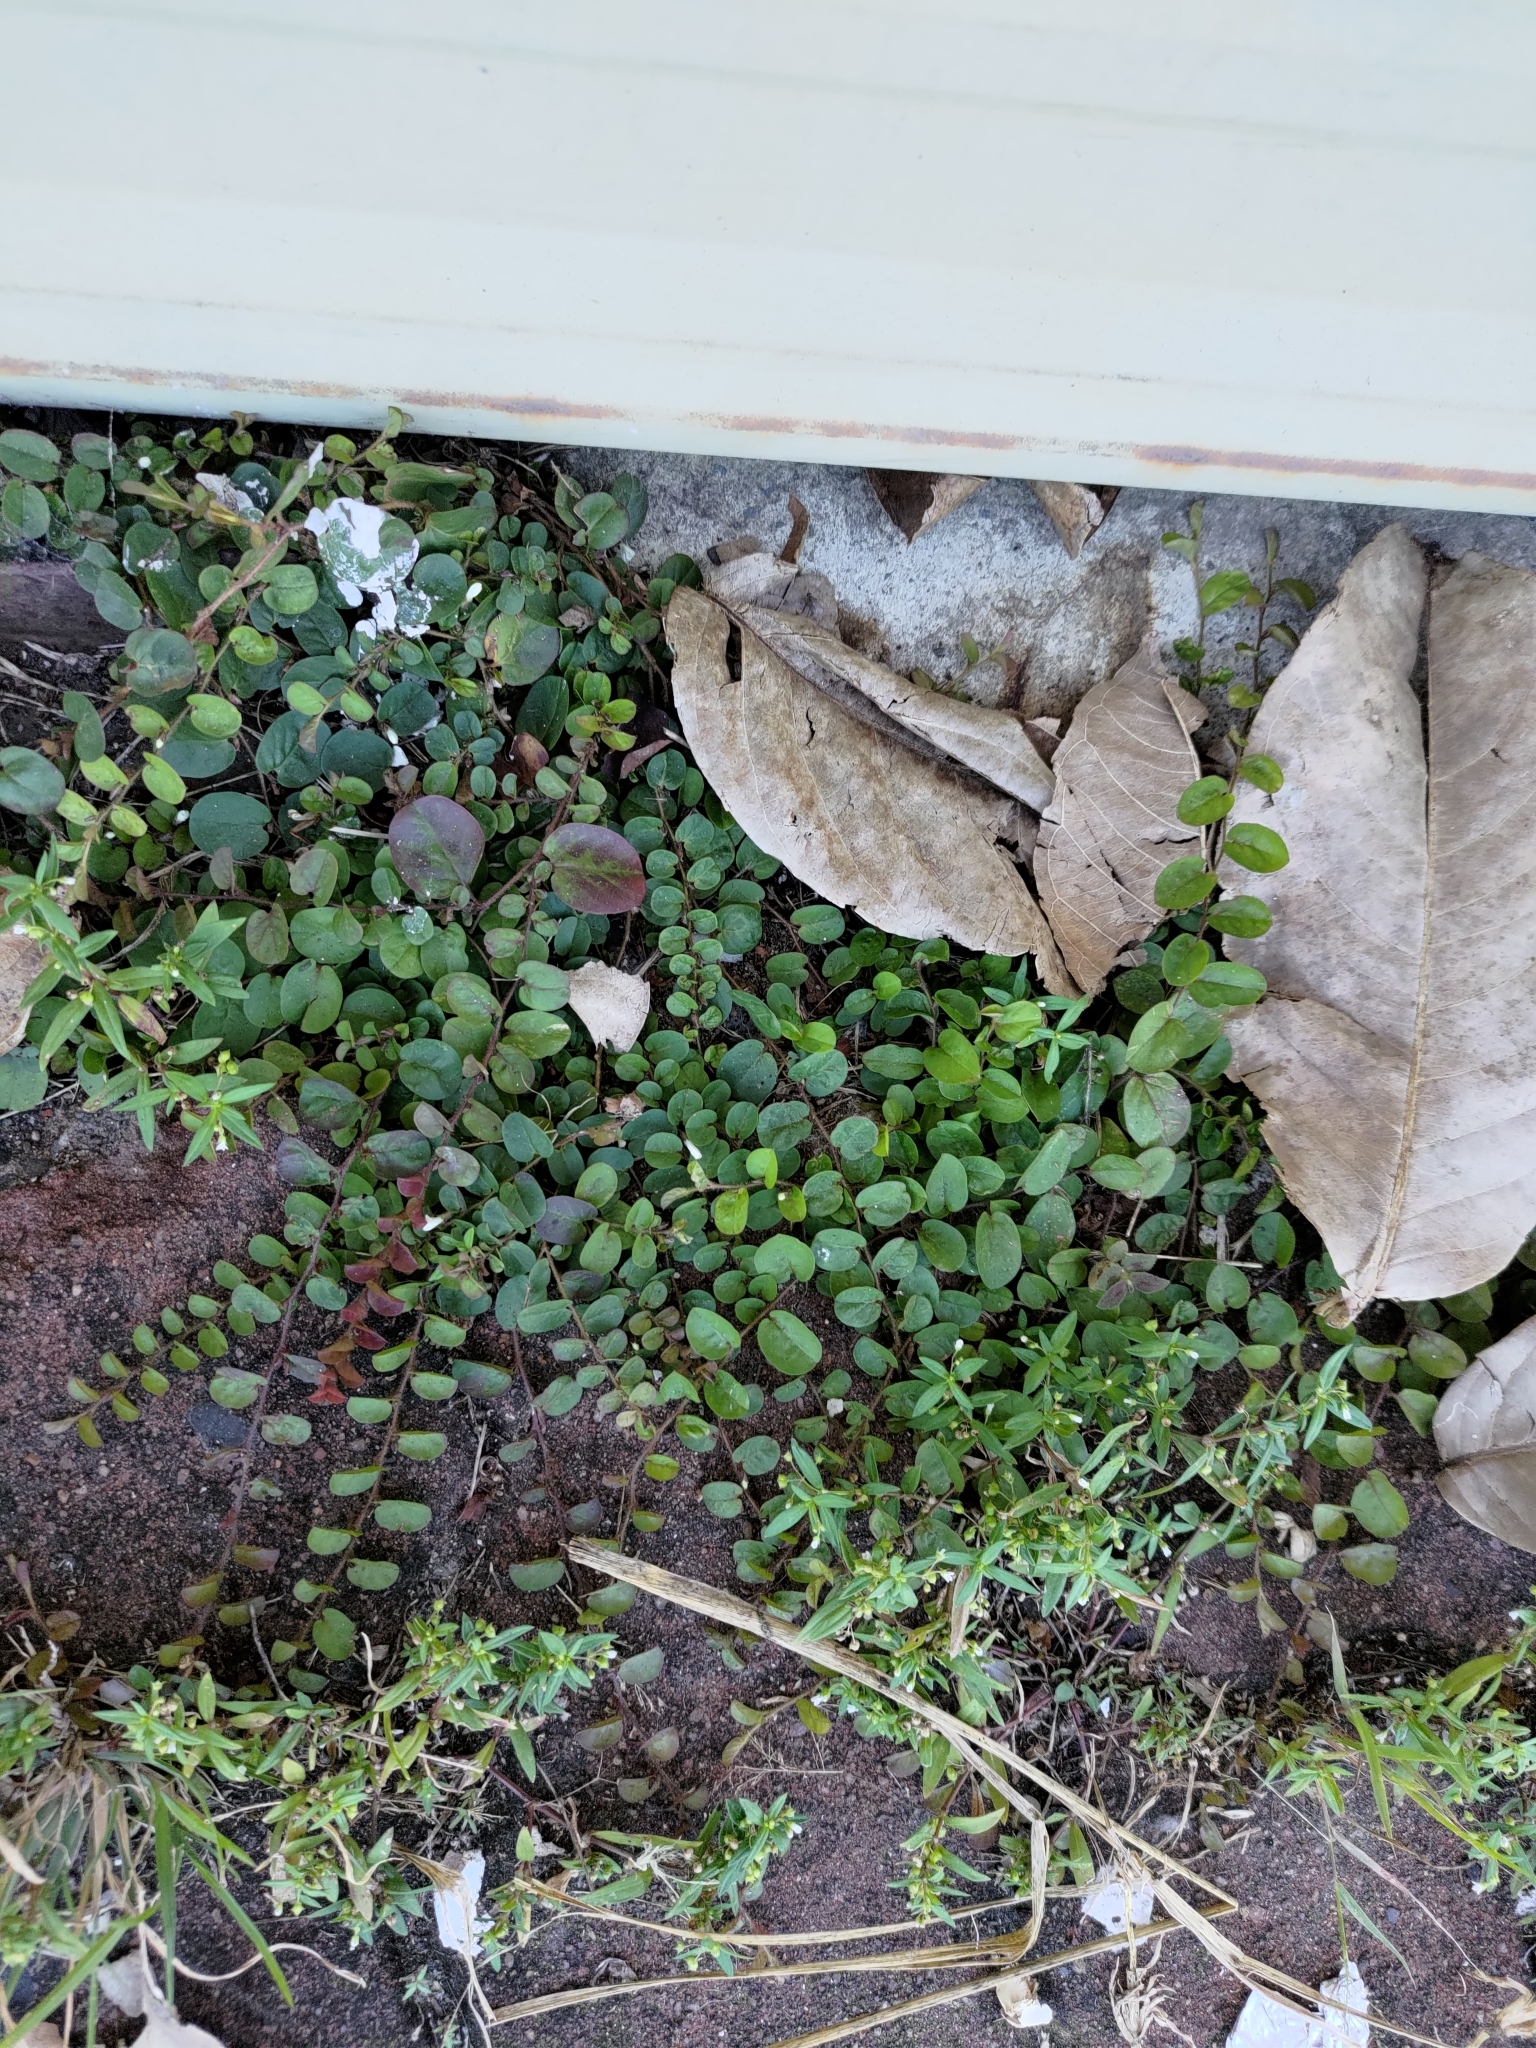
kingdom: Plantae
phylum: Tracheophyta
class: Magnoliopsida
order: Solanales
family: Convolvulaceae
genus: Evolvulus
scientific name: Evolvulus nummularius
